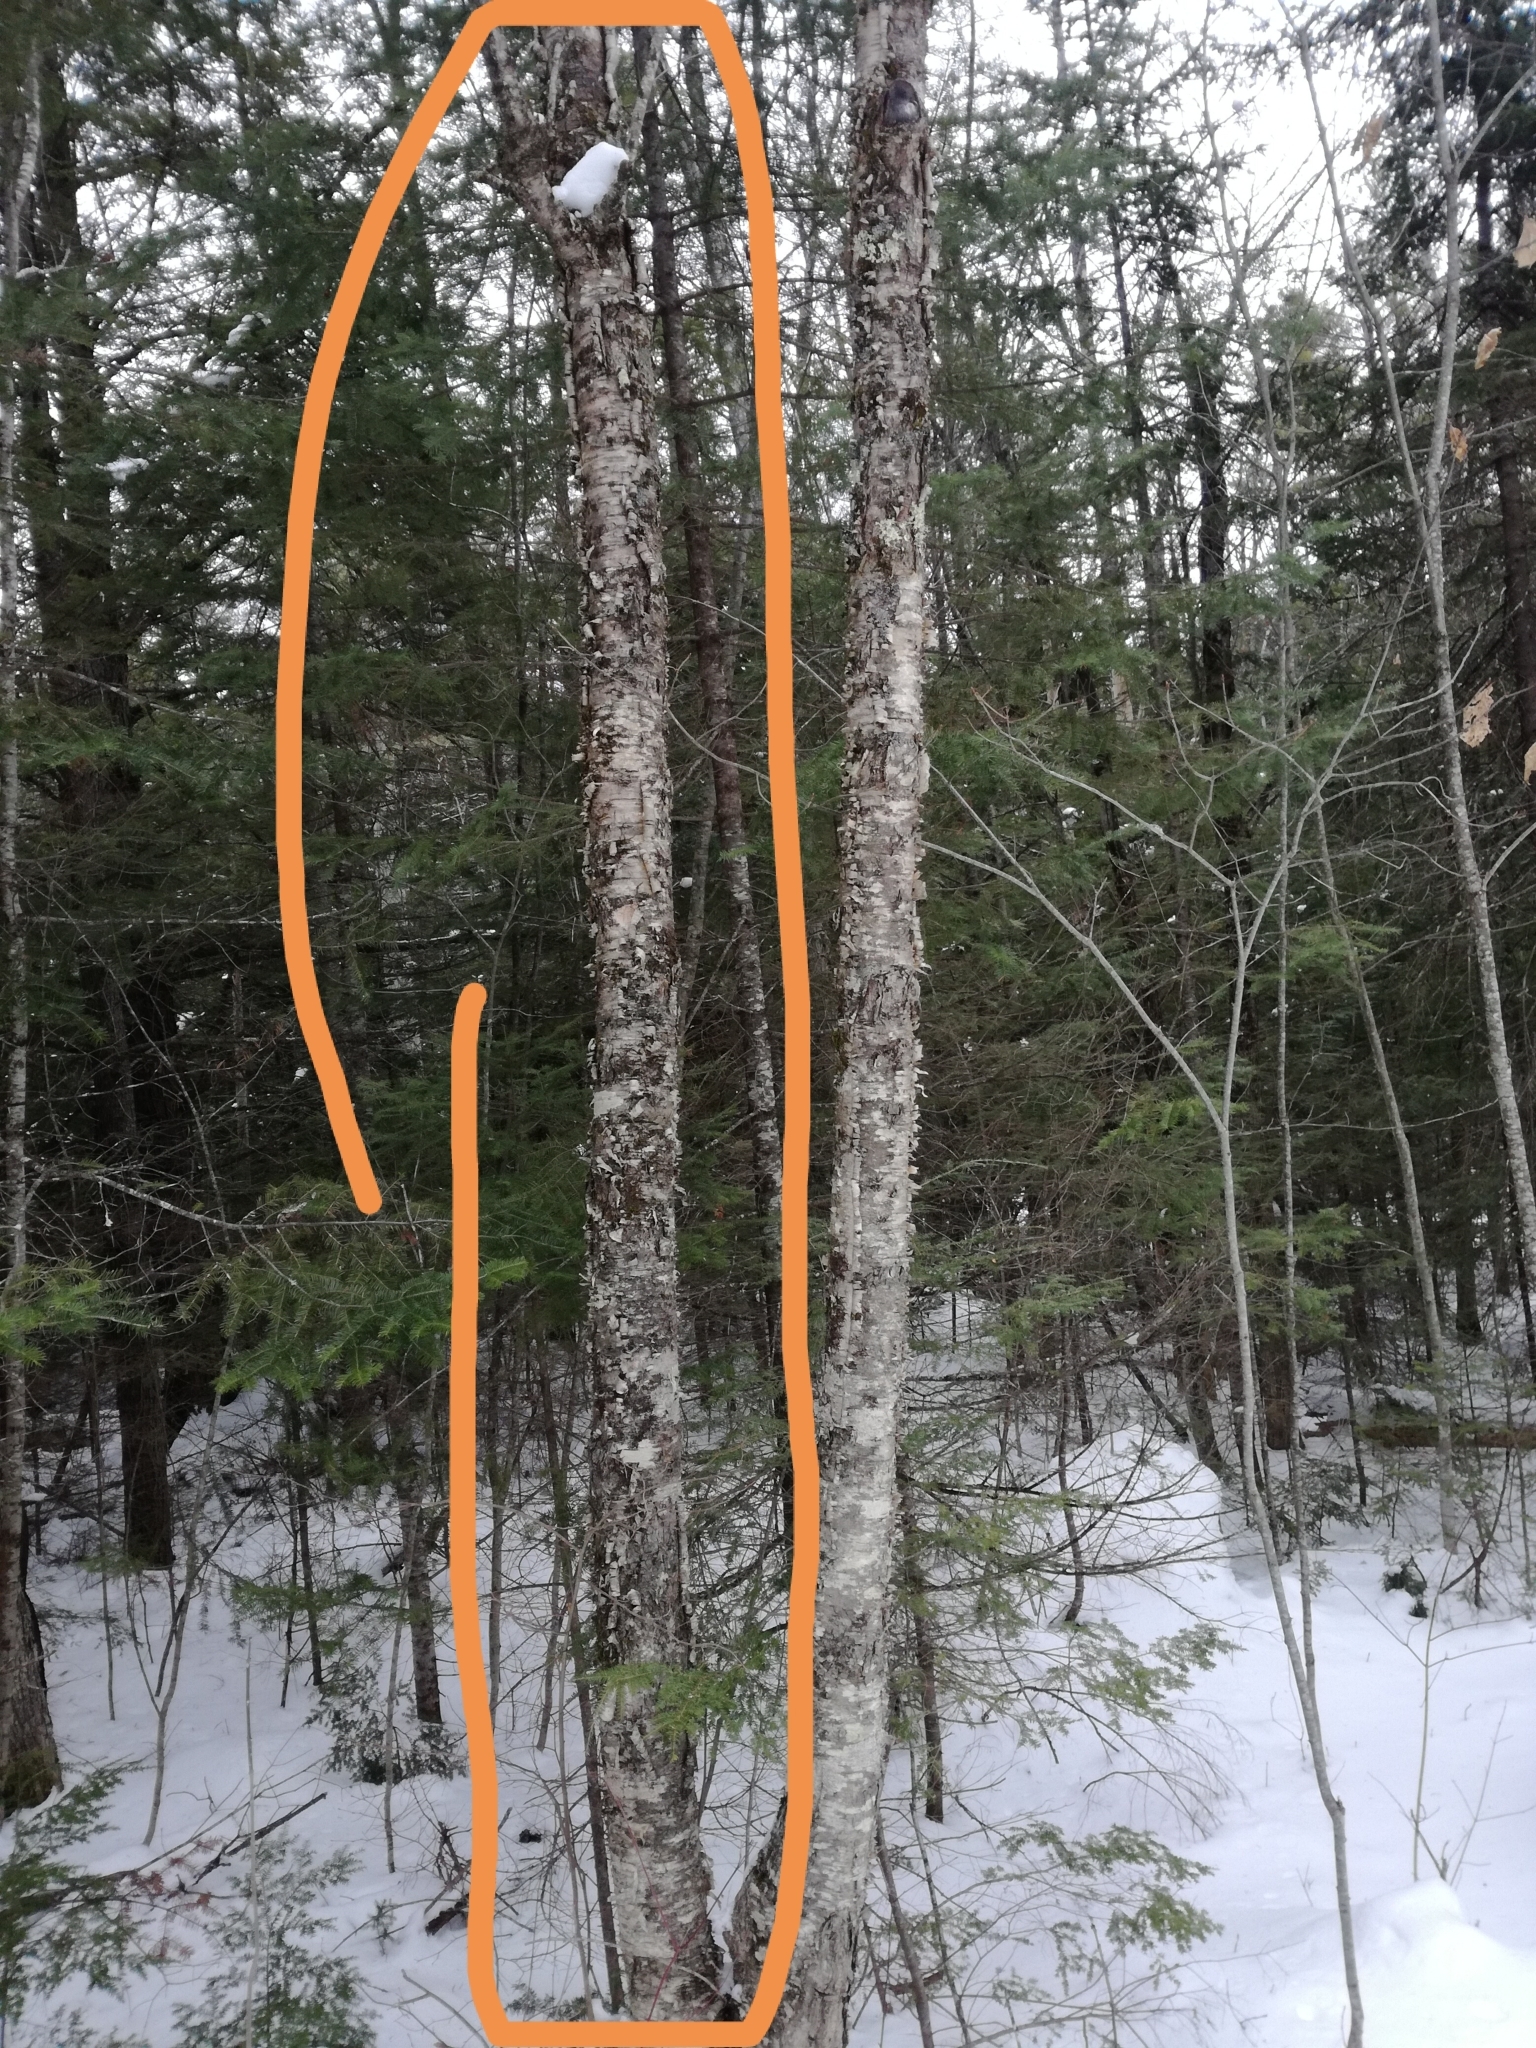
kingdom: Plantae
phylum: Tracheophyta
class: Magnoliopsida
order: Fagales
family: Betulaceae
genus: Betula
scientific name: Betula alleghaniensis
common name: Yellow birch
